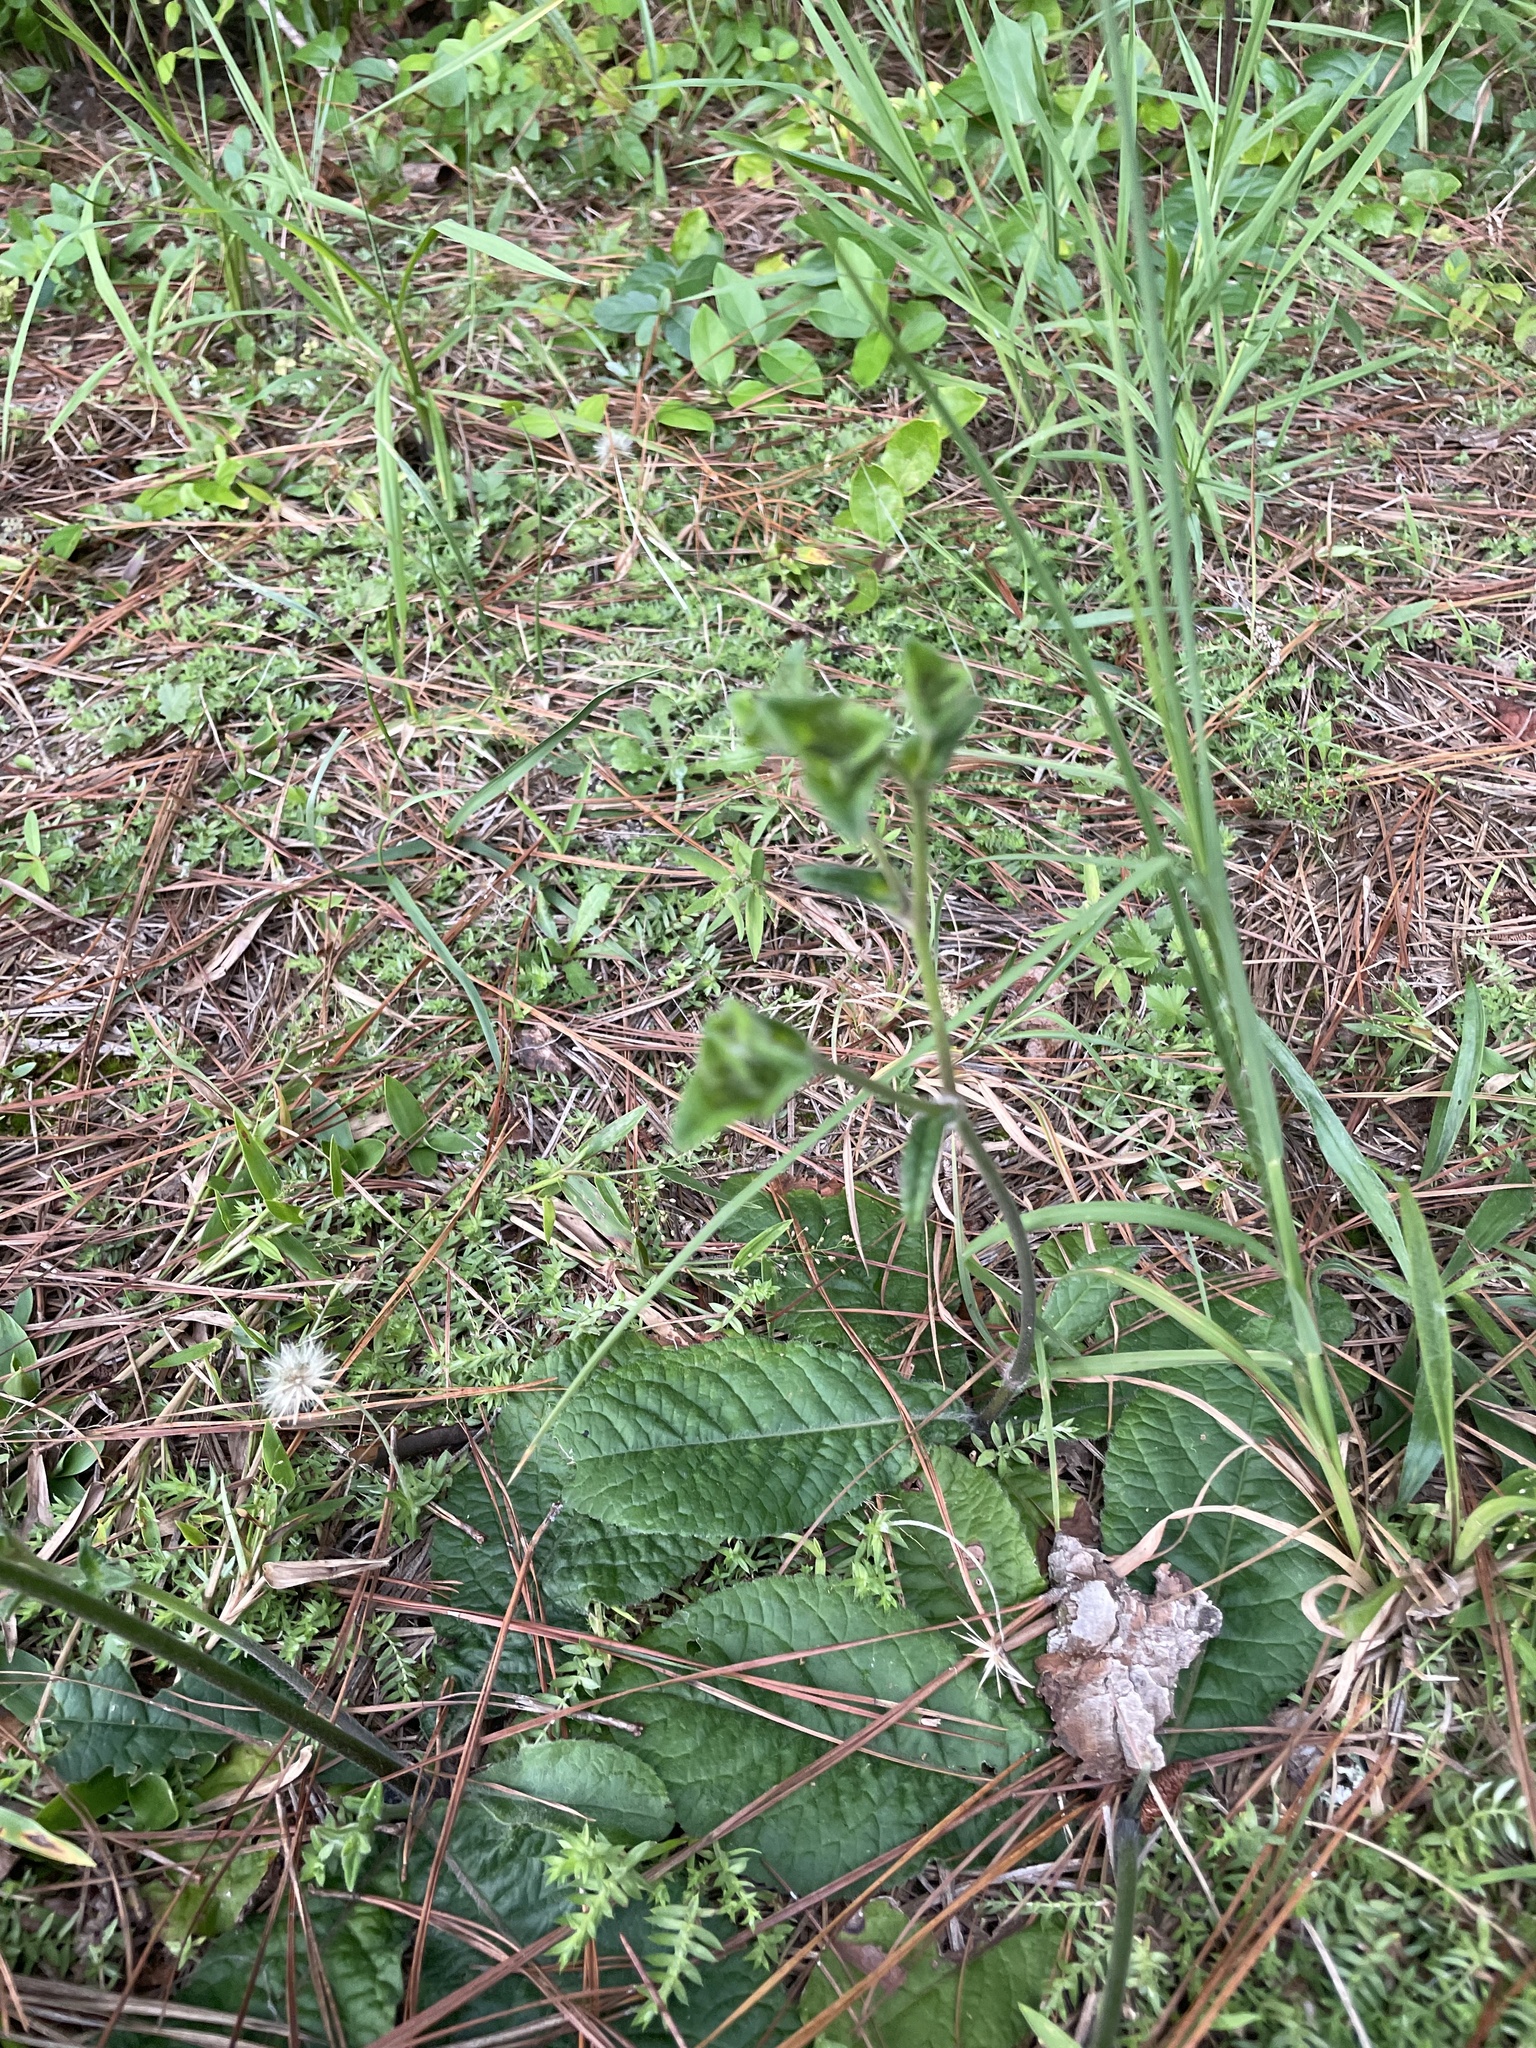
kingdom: Plantae
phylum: Tracheophyta
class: Magnoliopsida
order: Asterales
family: Asteraceae
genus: Elephantopus
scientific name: Elephantopus tomentosus
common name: Tobacco-weed
